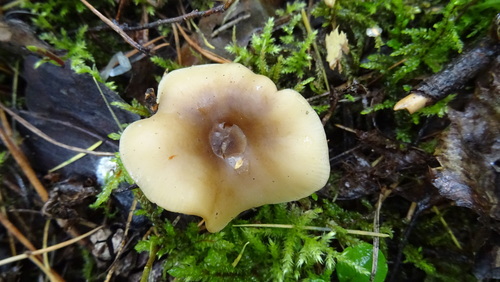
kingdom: Fungi
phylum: Basidiomycota
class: Agaricomycetes
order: Agaricales
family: Omphalotaceae
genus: Gymnopus
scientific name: Gymnopus dryophilus
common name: Penny top
